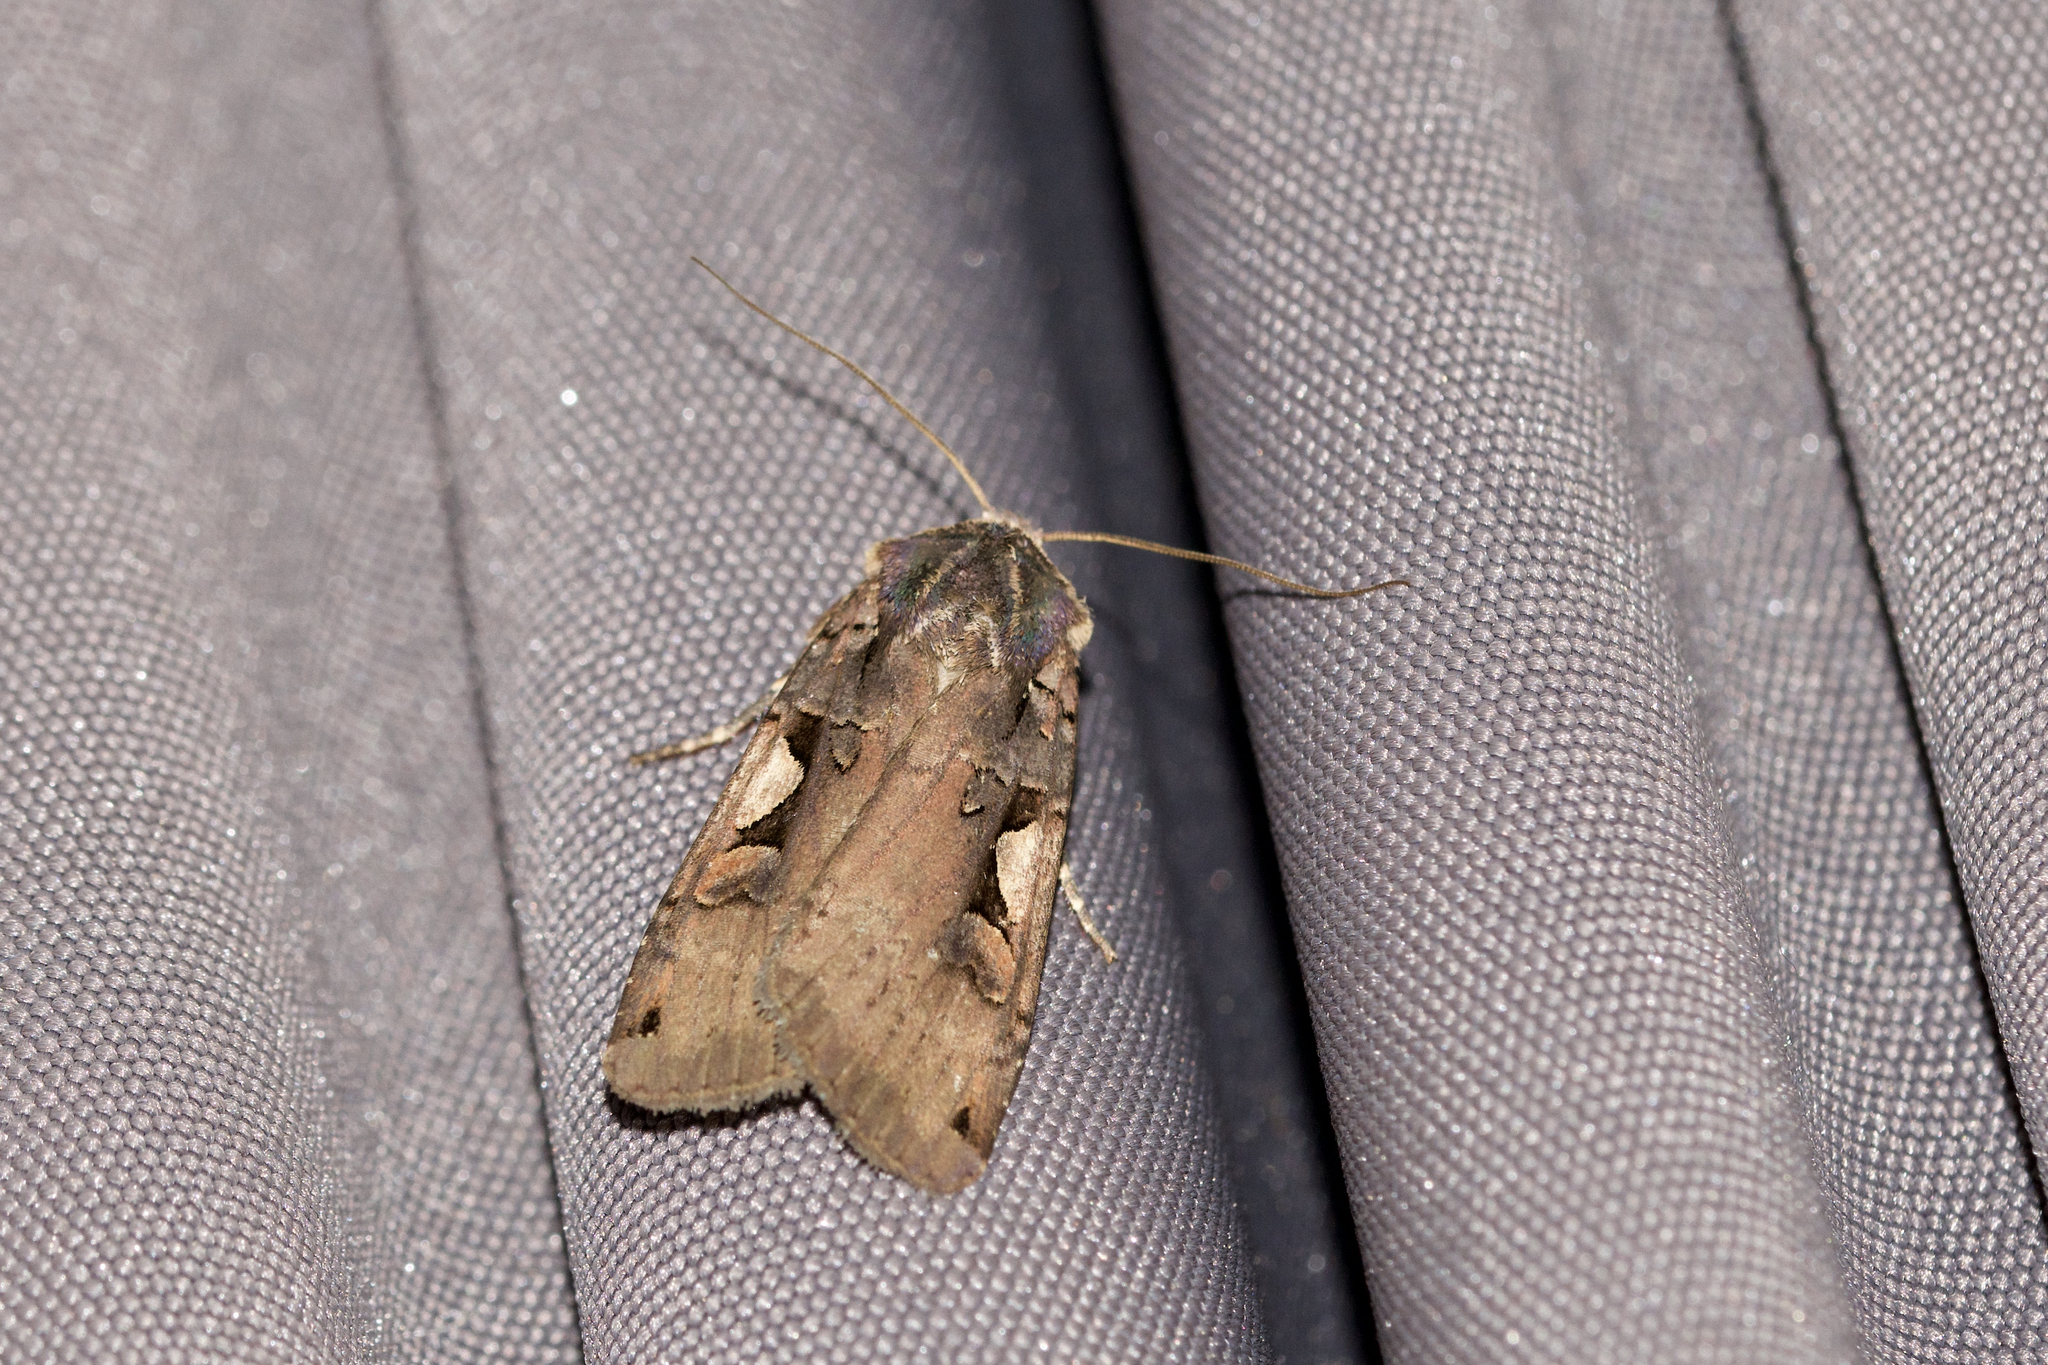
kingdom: Animalia
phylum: Arthropoda
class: Insecta
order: Lepidoptera
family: Noctuidae
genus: Xestia
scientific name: Xestia dolosa
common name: Cutworm moth
